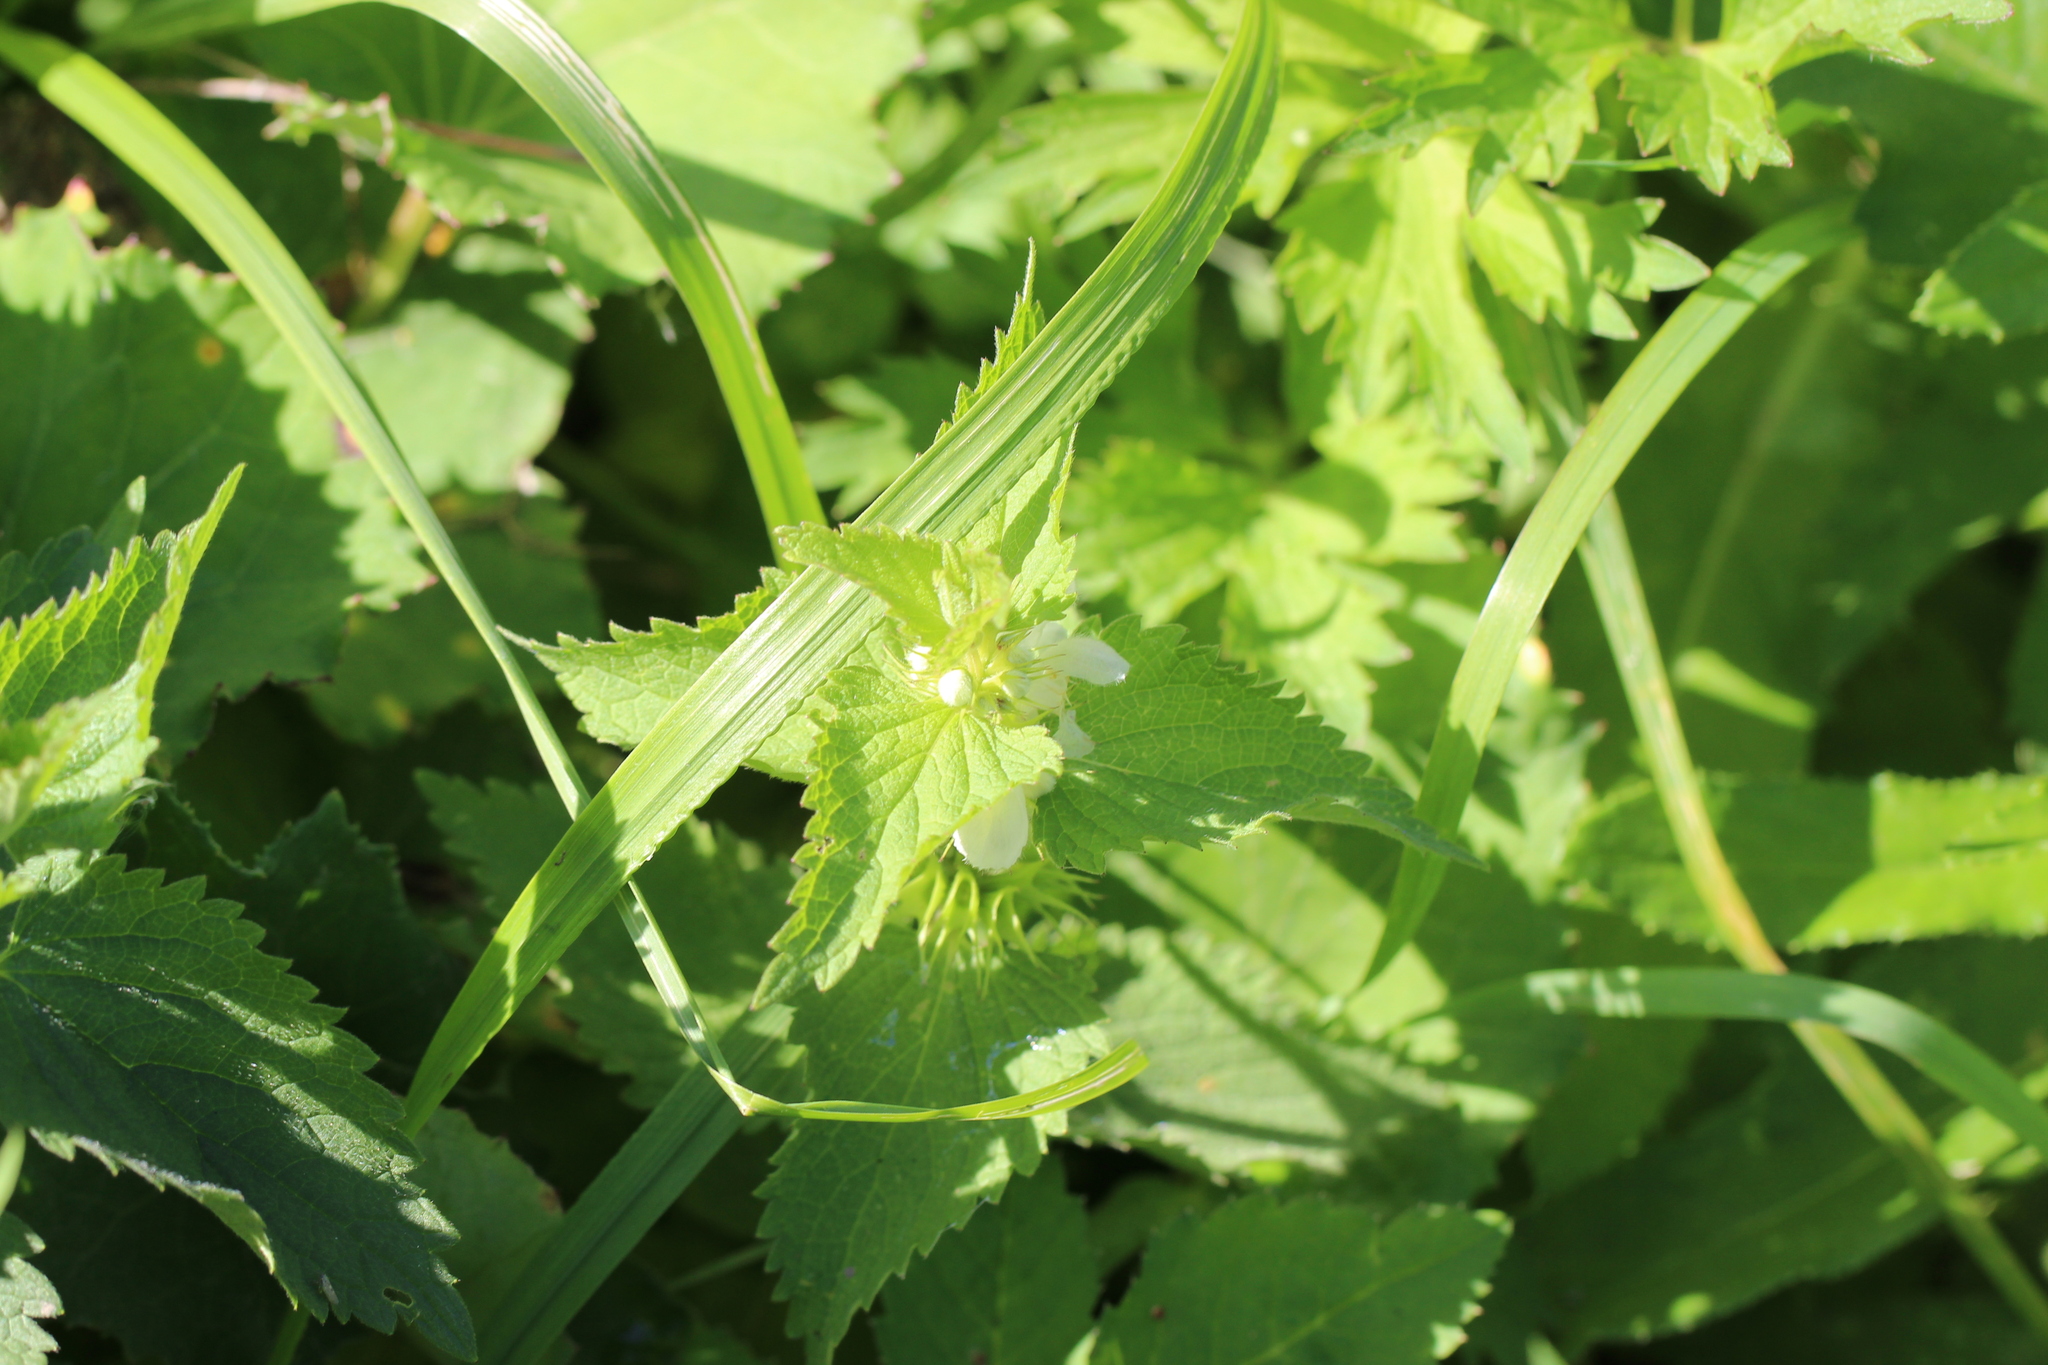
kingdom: Plantae
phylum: Tracheophyta
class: Magnoliopsida
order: Lamiales
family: Lamiaceae
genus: Lamium
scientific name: Lamium album
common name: White dead-nettle
